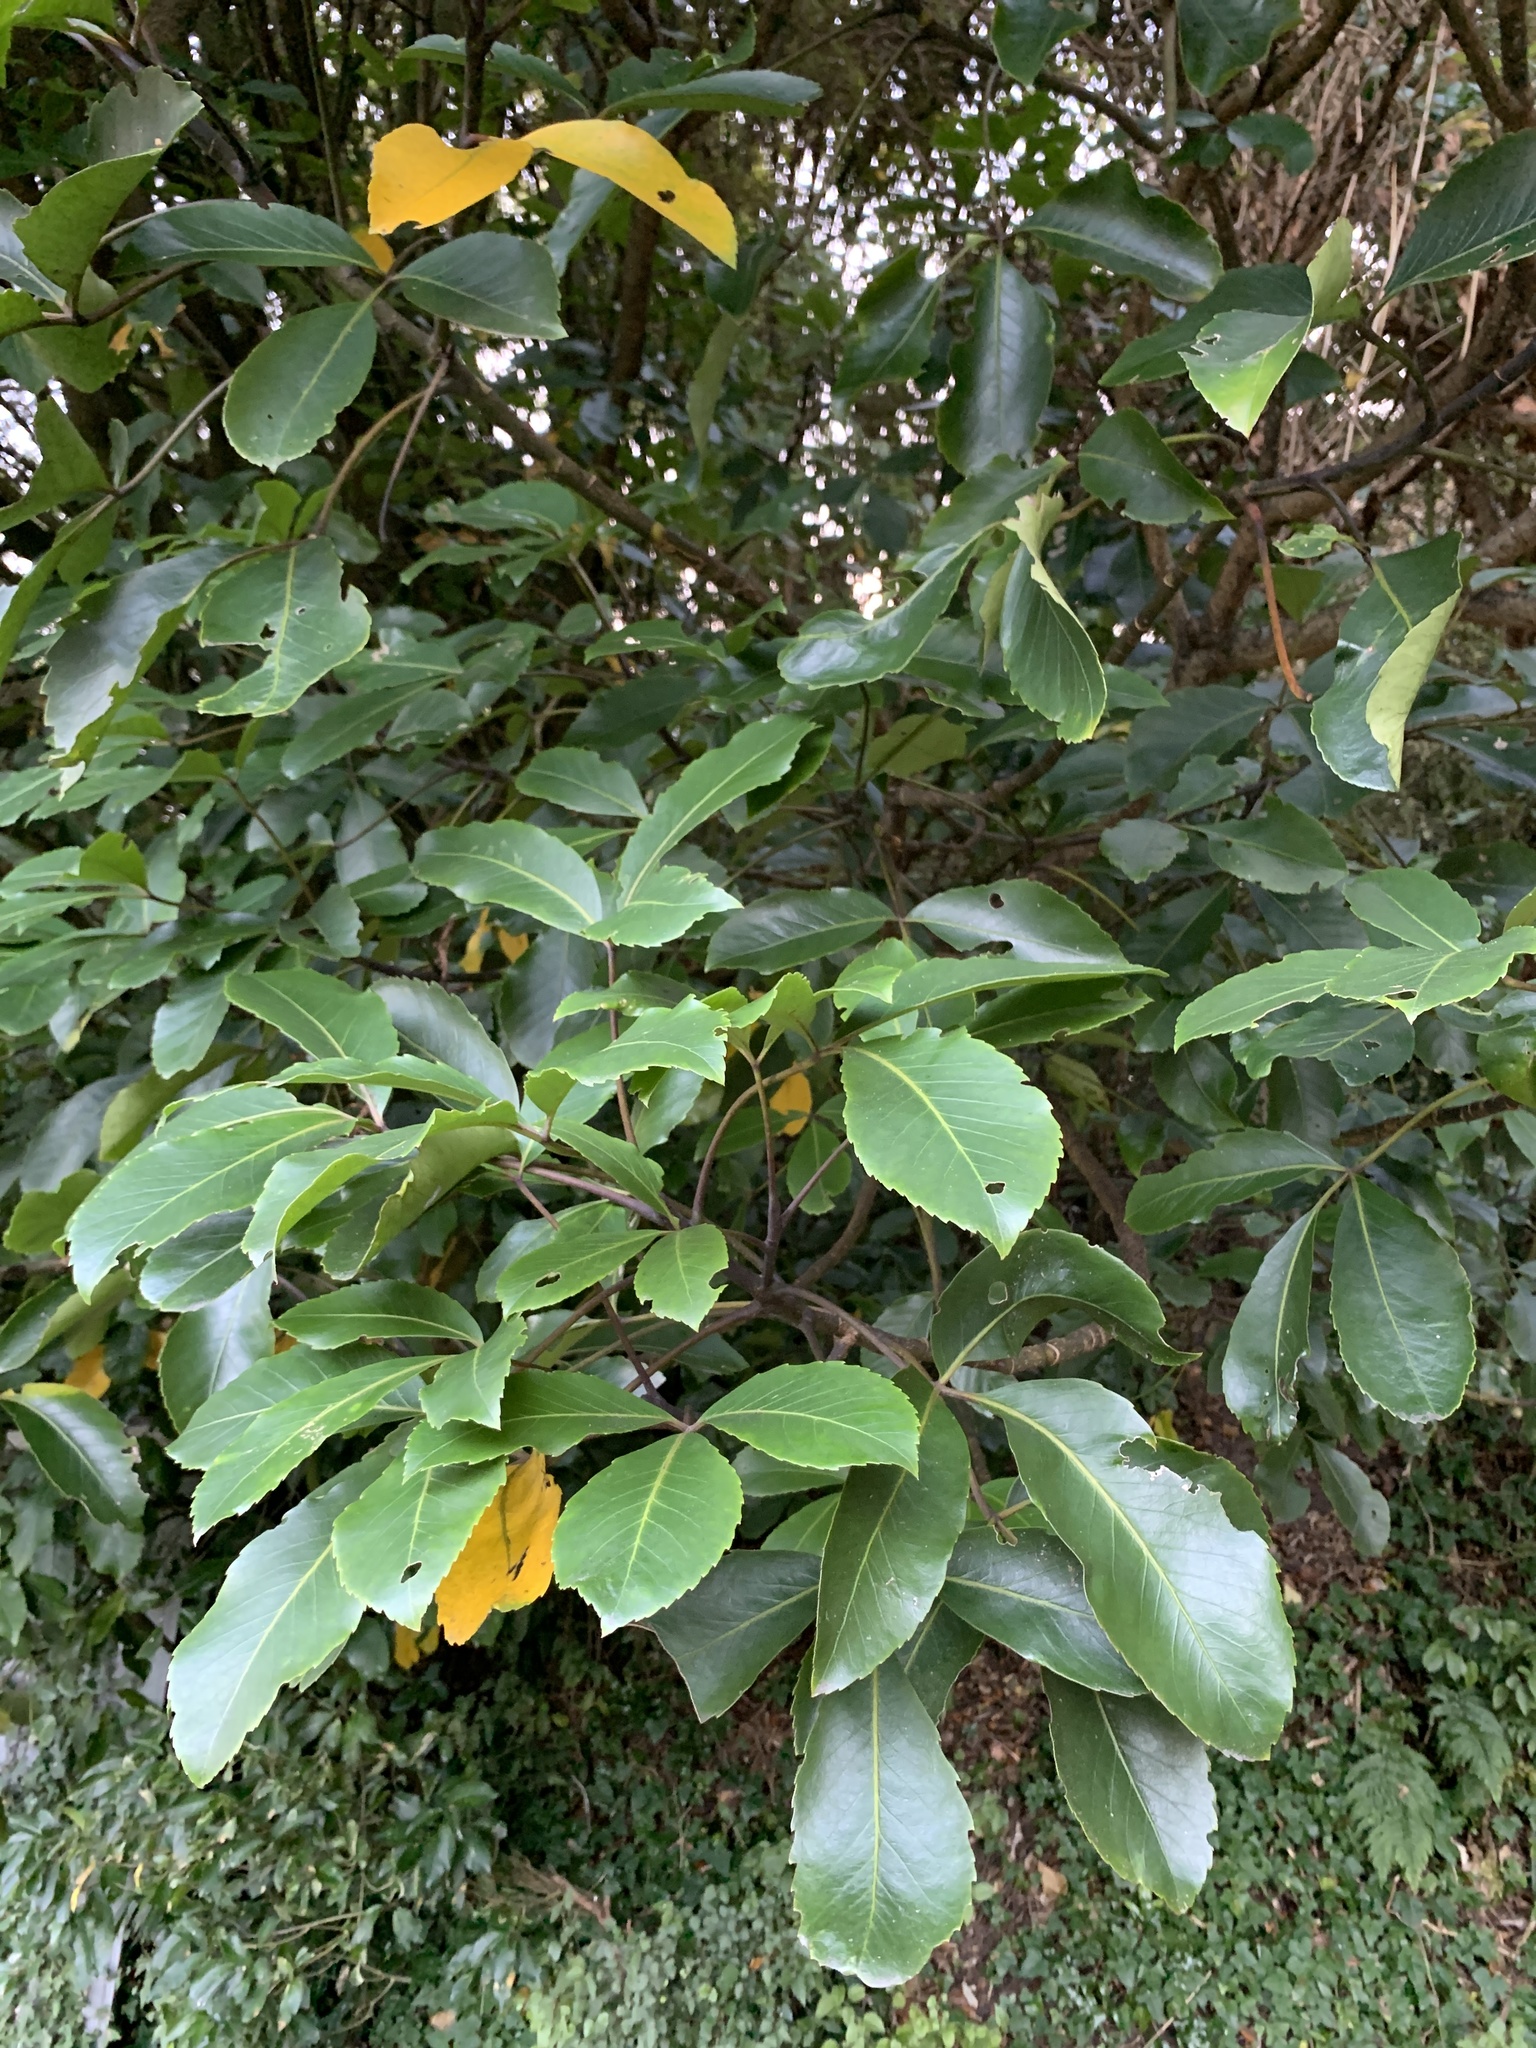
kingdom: Plantae
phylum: Tracheophyta
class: Magnoliopsida
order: Apiales
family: Araliaceae
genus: Neopanax
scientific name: Neopanax arboreus
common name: Five-fingers
